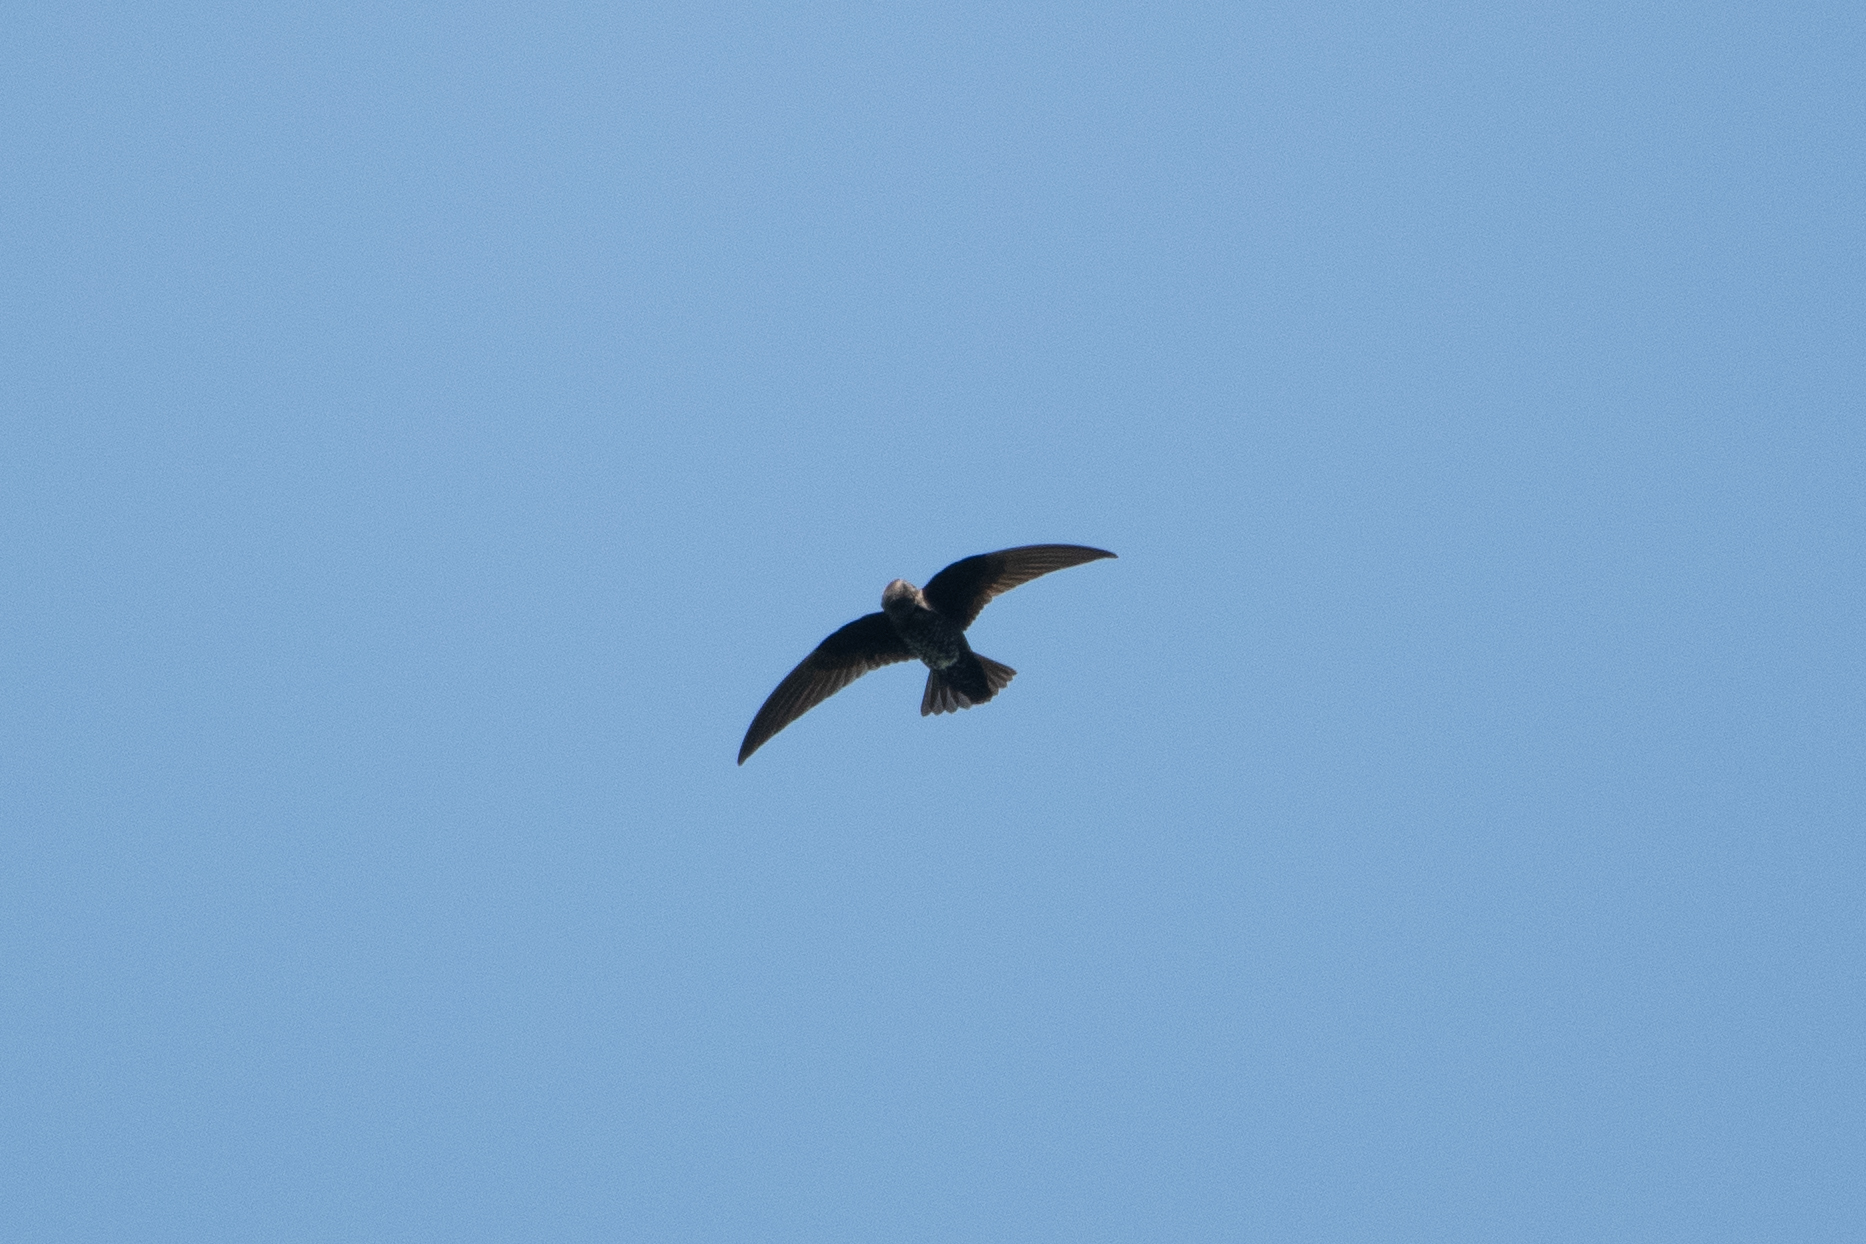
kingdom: Animalia
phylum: Chordata
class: Aves
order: Apodiformes
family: Apodidae
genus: Cypseloides
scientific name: Cypseloides niger
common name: Black swift
